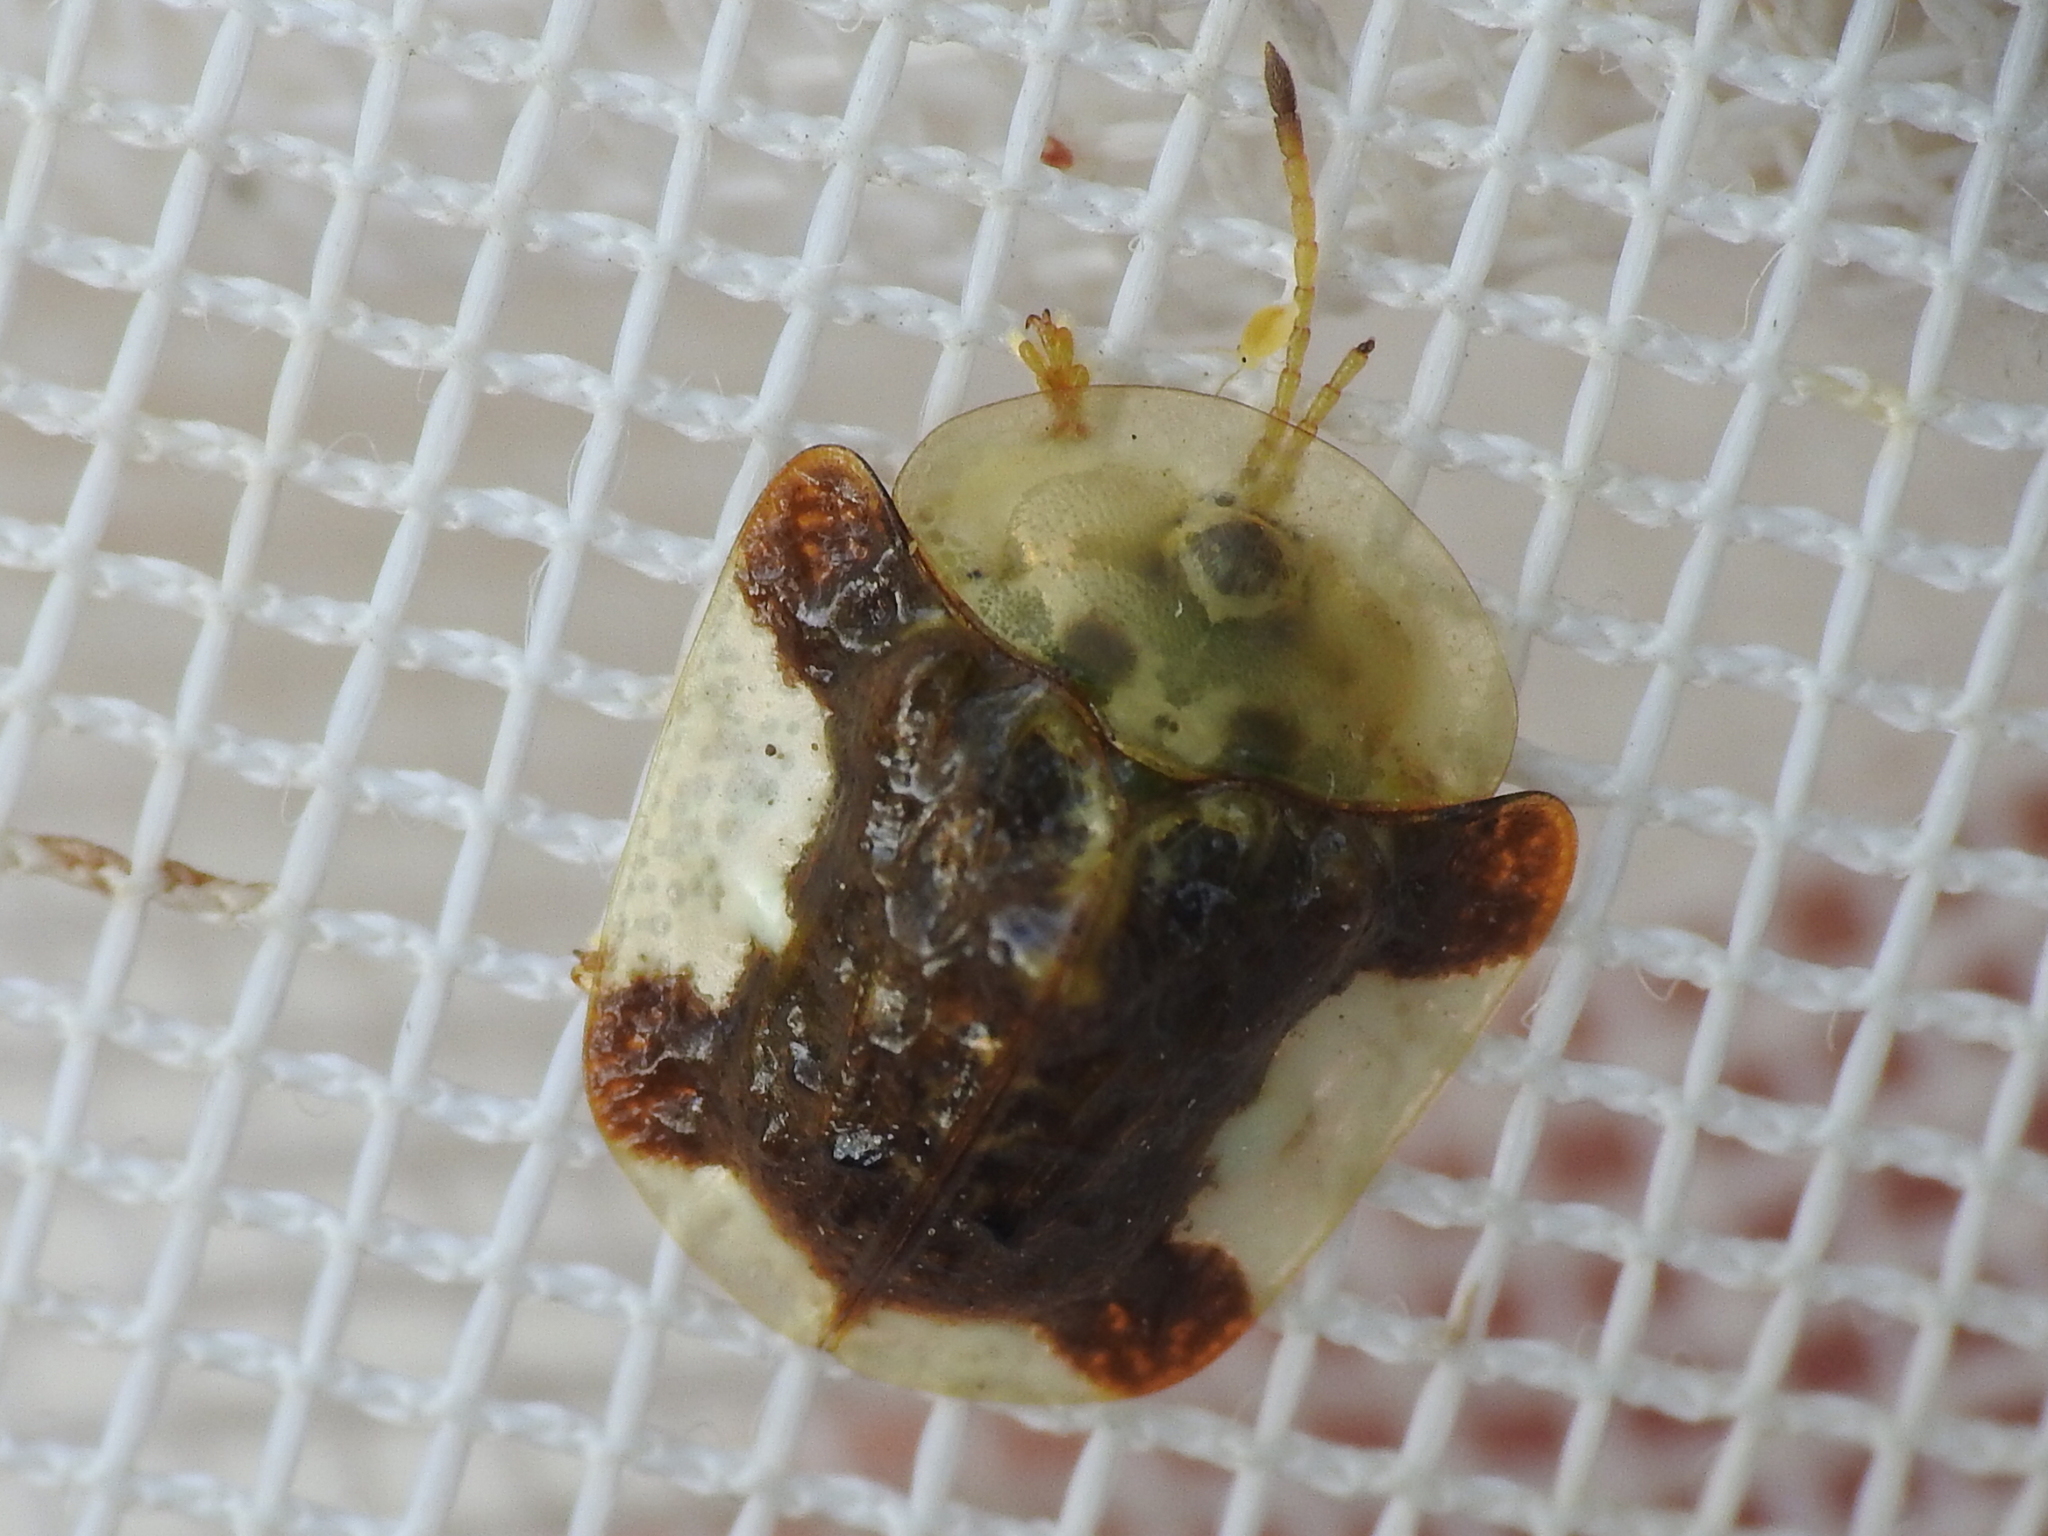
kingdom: Animalia
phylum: Arthropoda
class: Insecta
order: Coleoptera
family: Chrysomelidae
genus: Helocassis
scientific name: Helocassis clavata
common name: Clavate tortoise beetle
